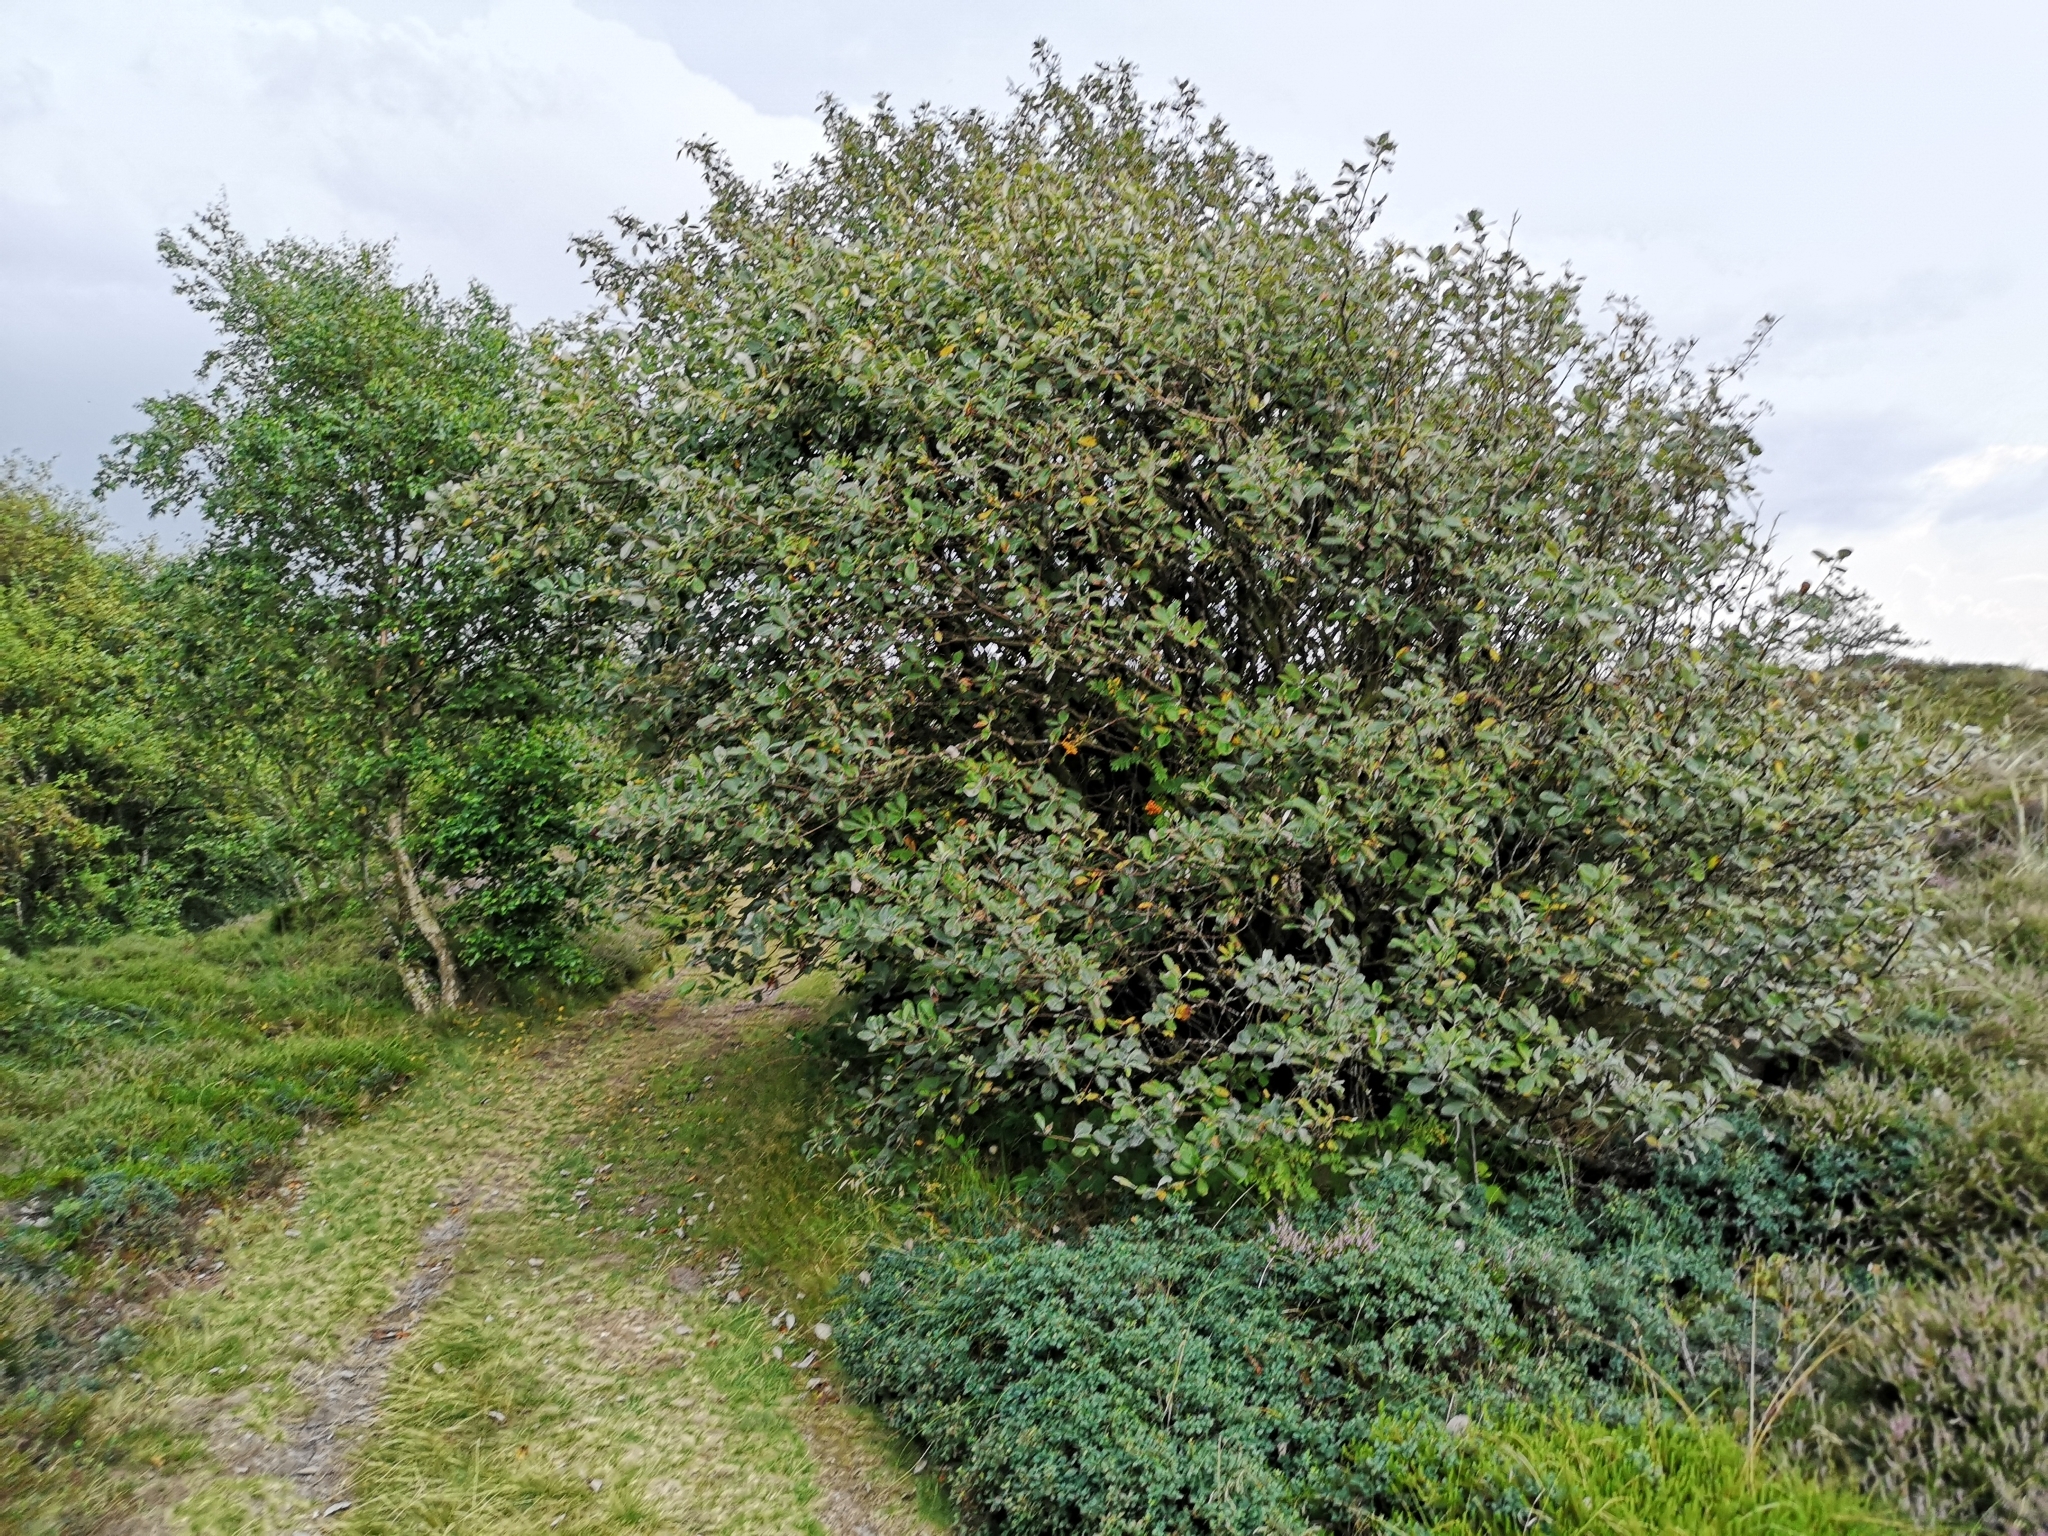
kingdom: Plantae
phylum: Tracheophyta
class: Magnoliopsida
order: Rosales
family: Rosaceae
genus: Aria
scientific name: Aria edulis
